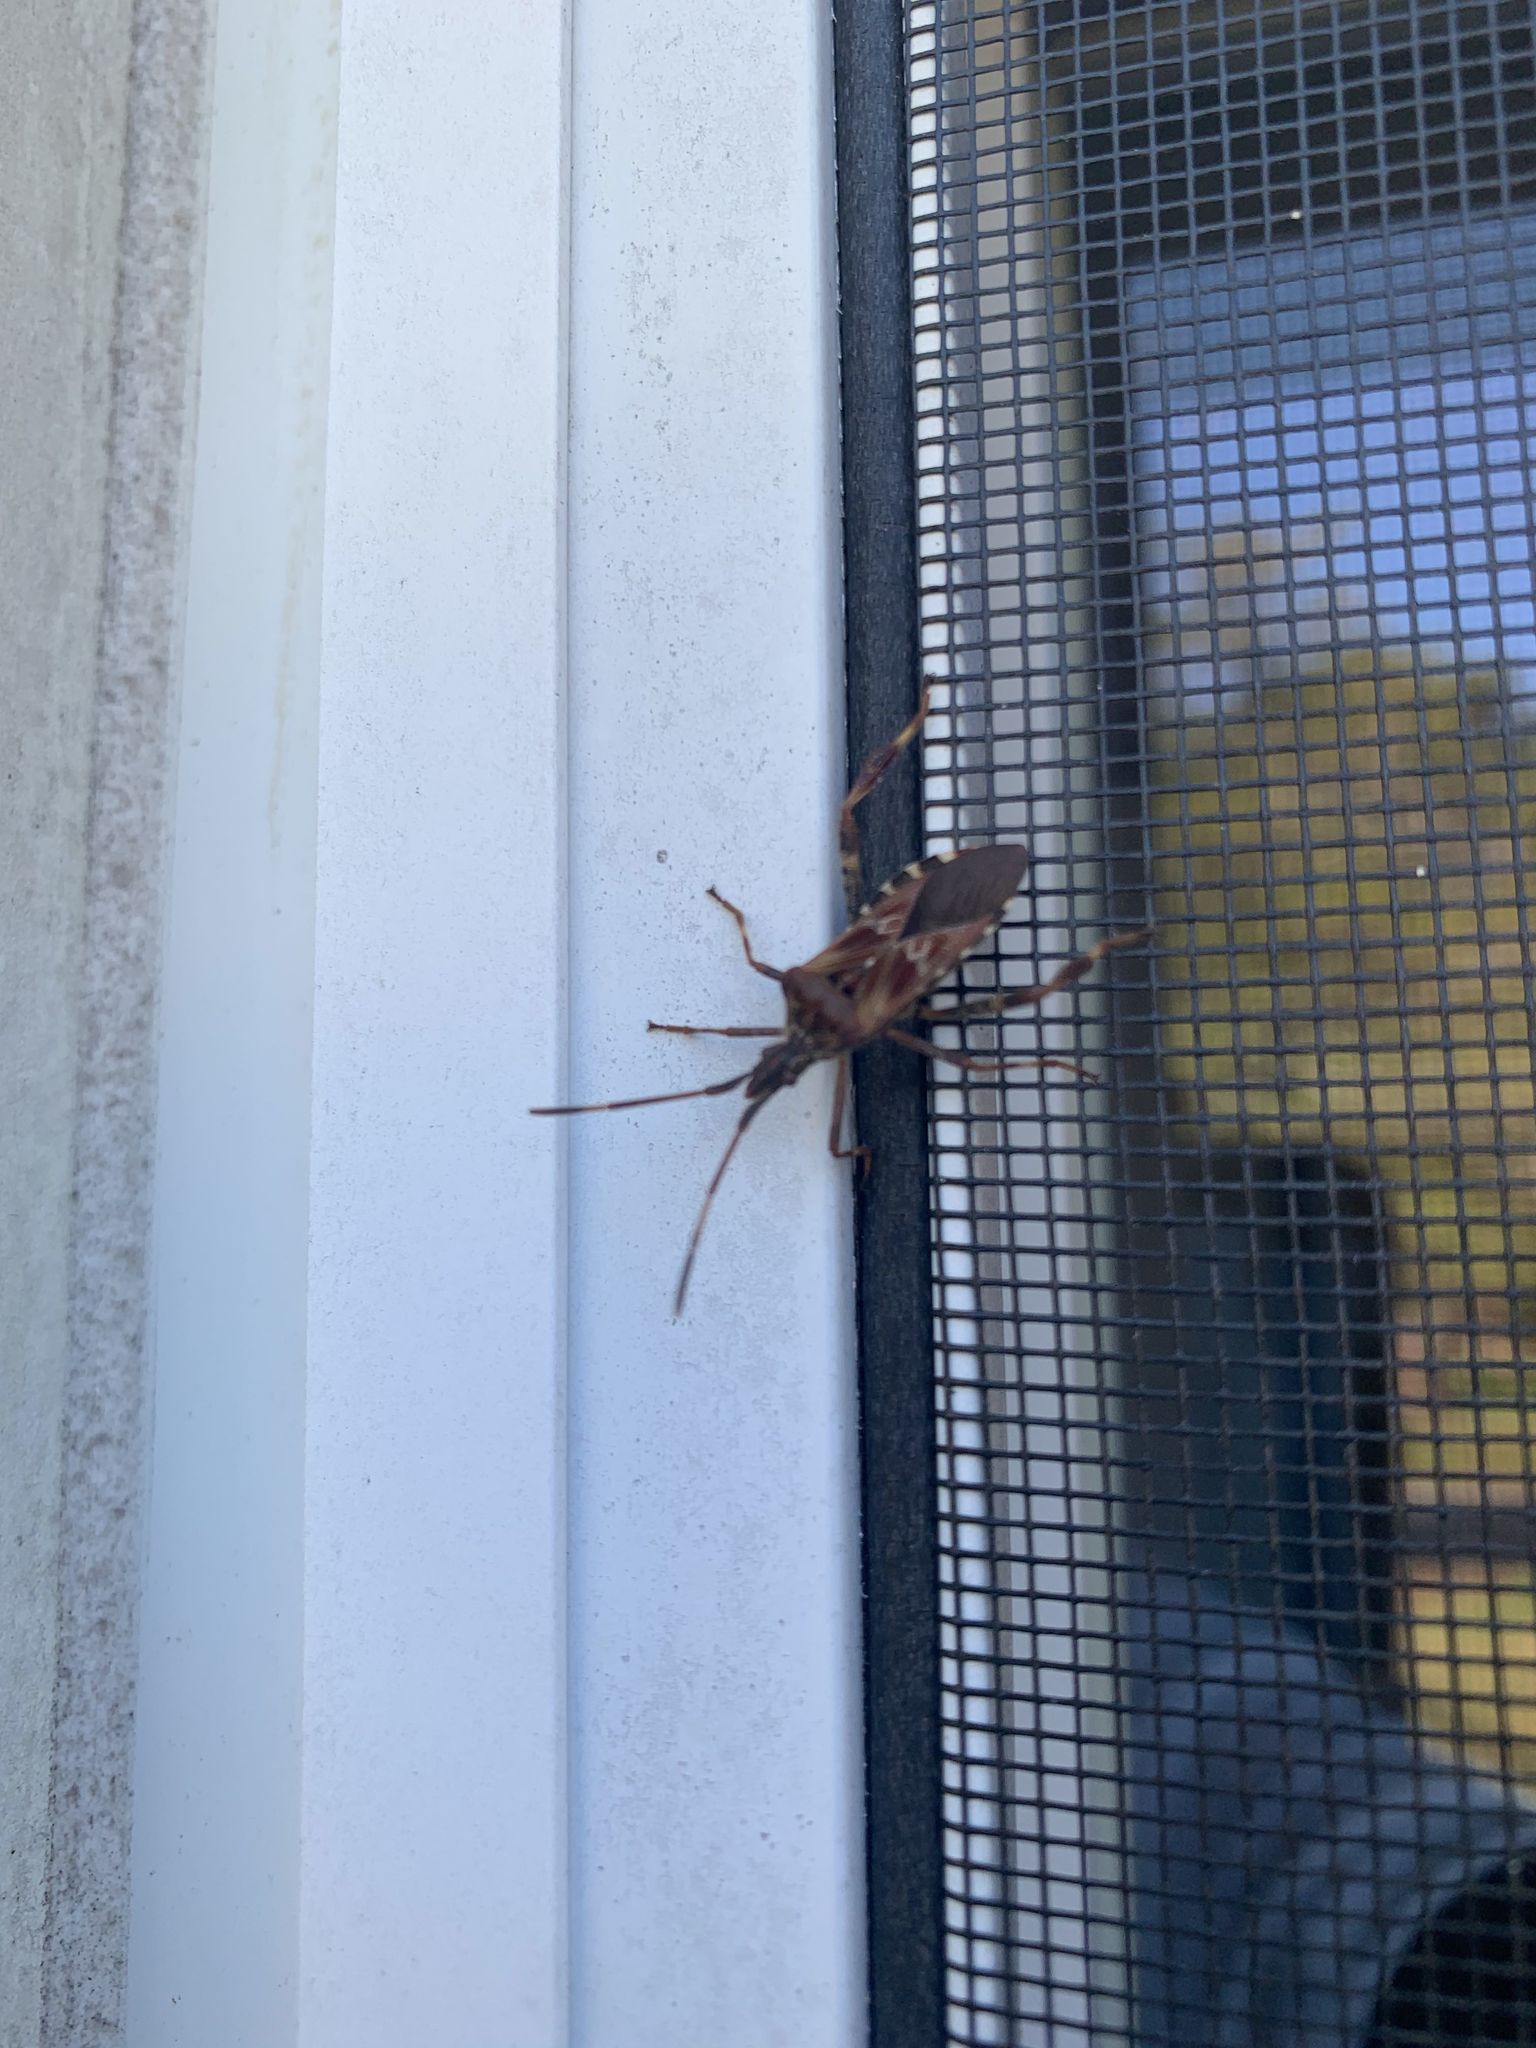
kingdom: Animalia
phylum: Arthropoda
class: Insecta
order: Hemiptera
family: Coreidae
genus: Leptoglossus
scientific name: Leptoglossus occidentalis
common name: Western conifer-seed bug
